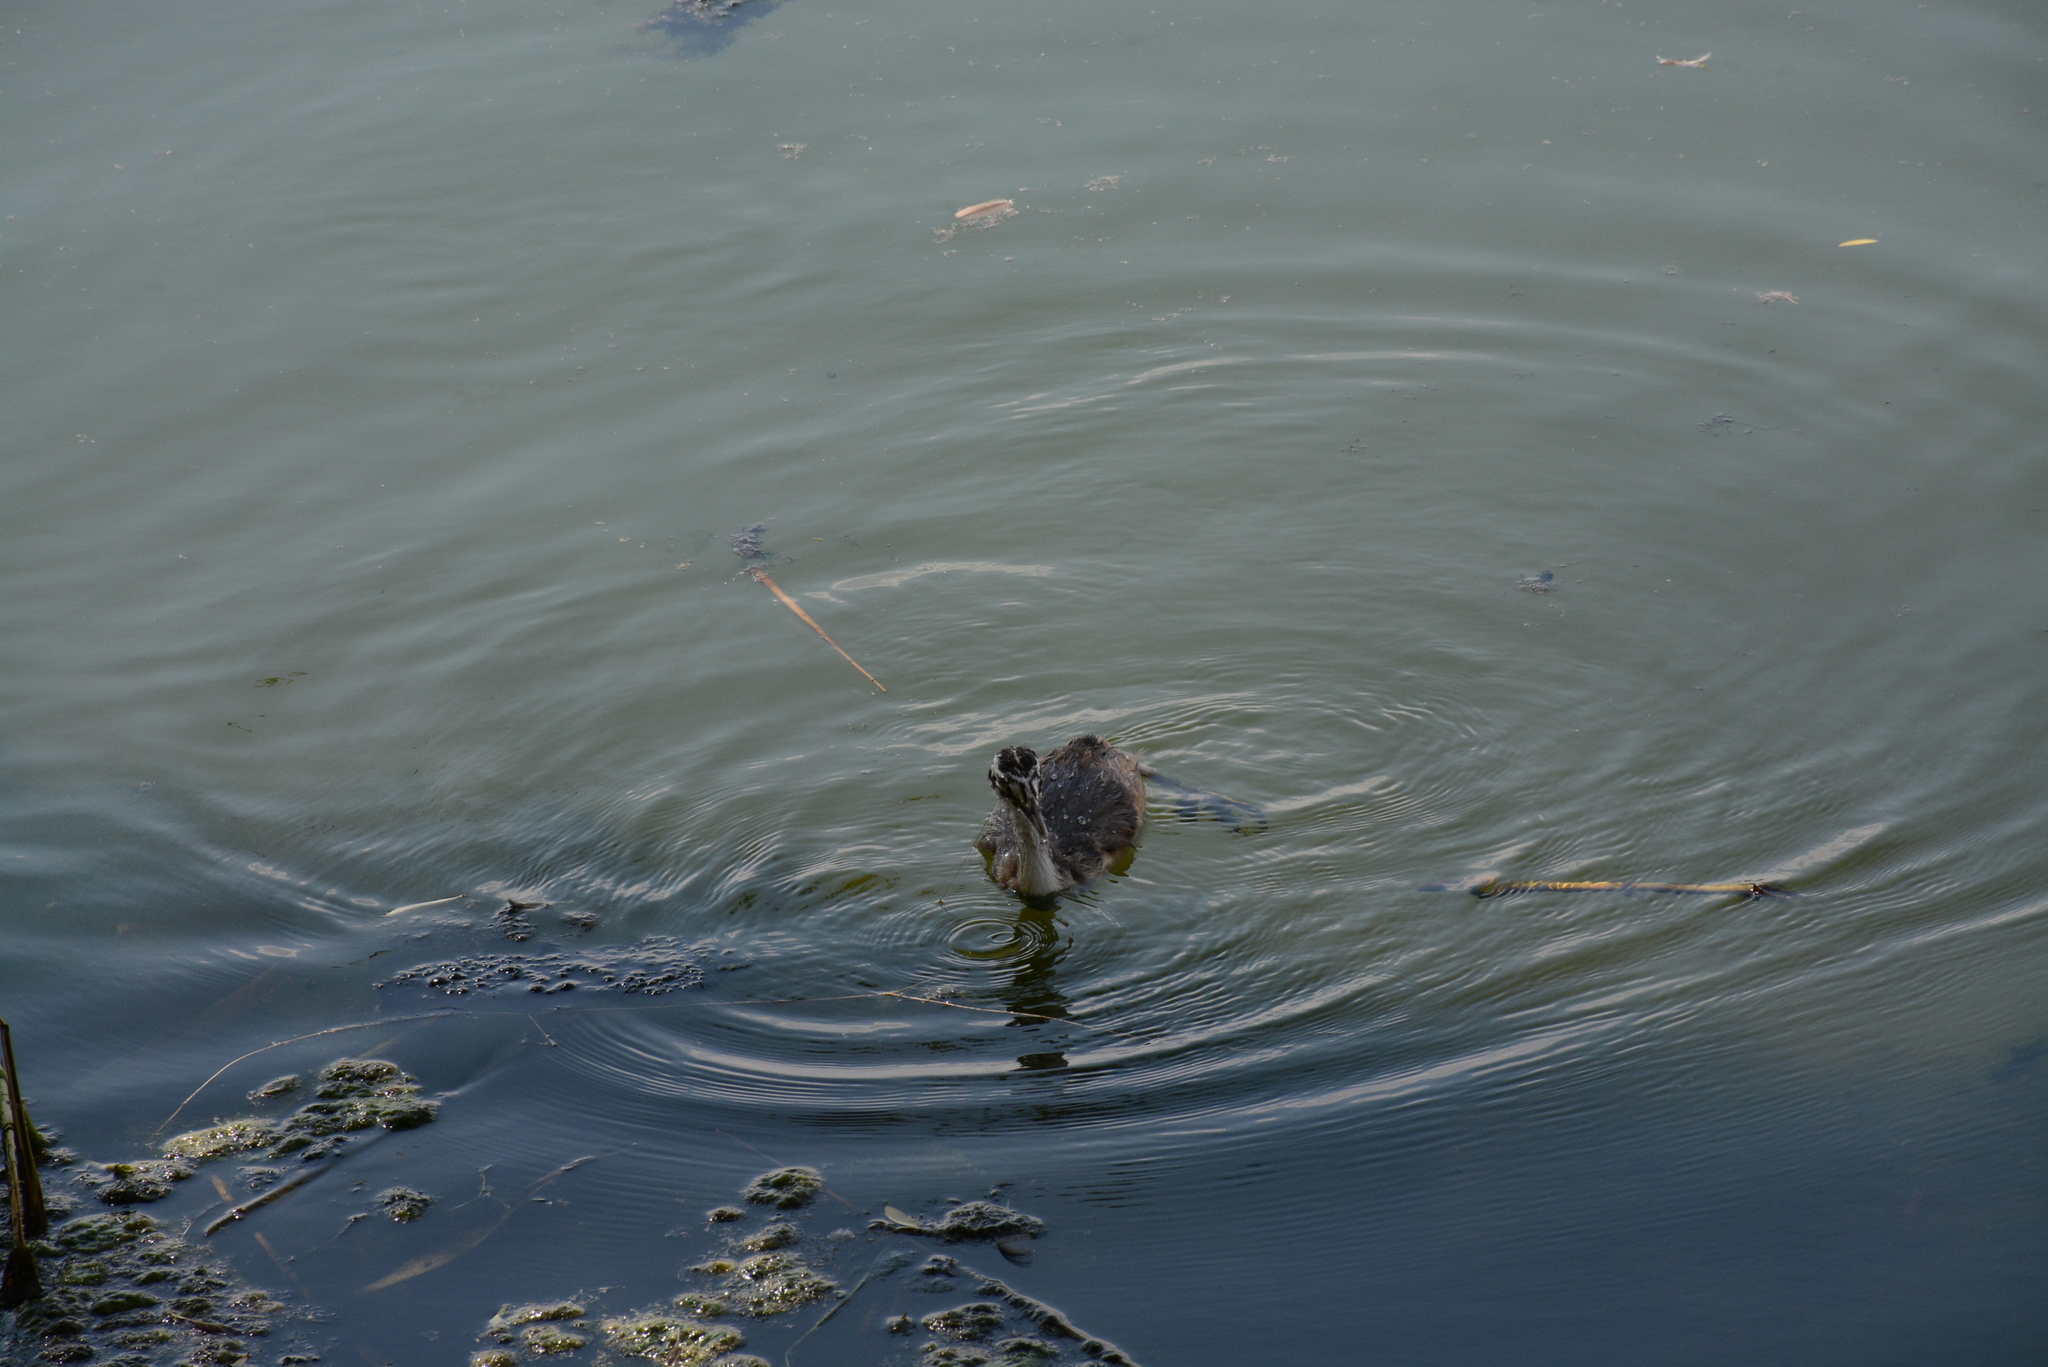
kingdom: Animalia
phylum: Chordata
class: Aves
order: Podicipediformes
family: Podicipedidae
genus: Podiceps
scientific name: Podiceps cristatus
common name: Great crested grebe
